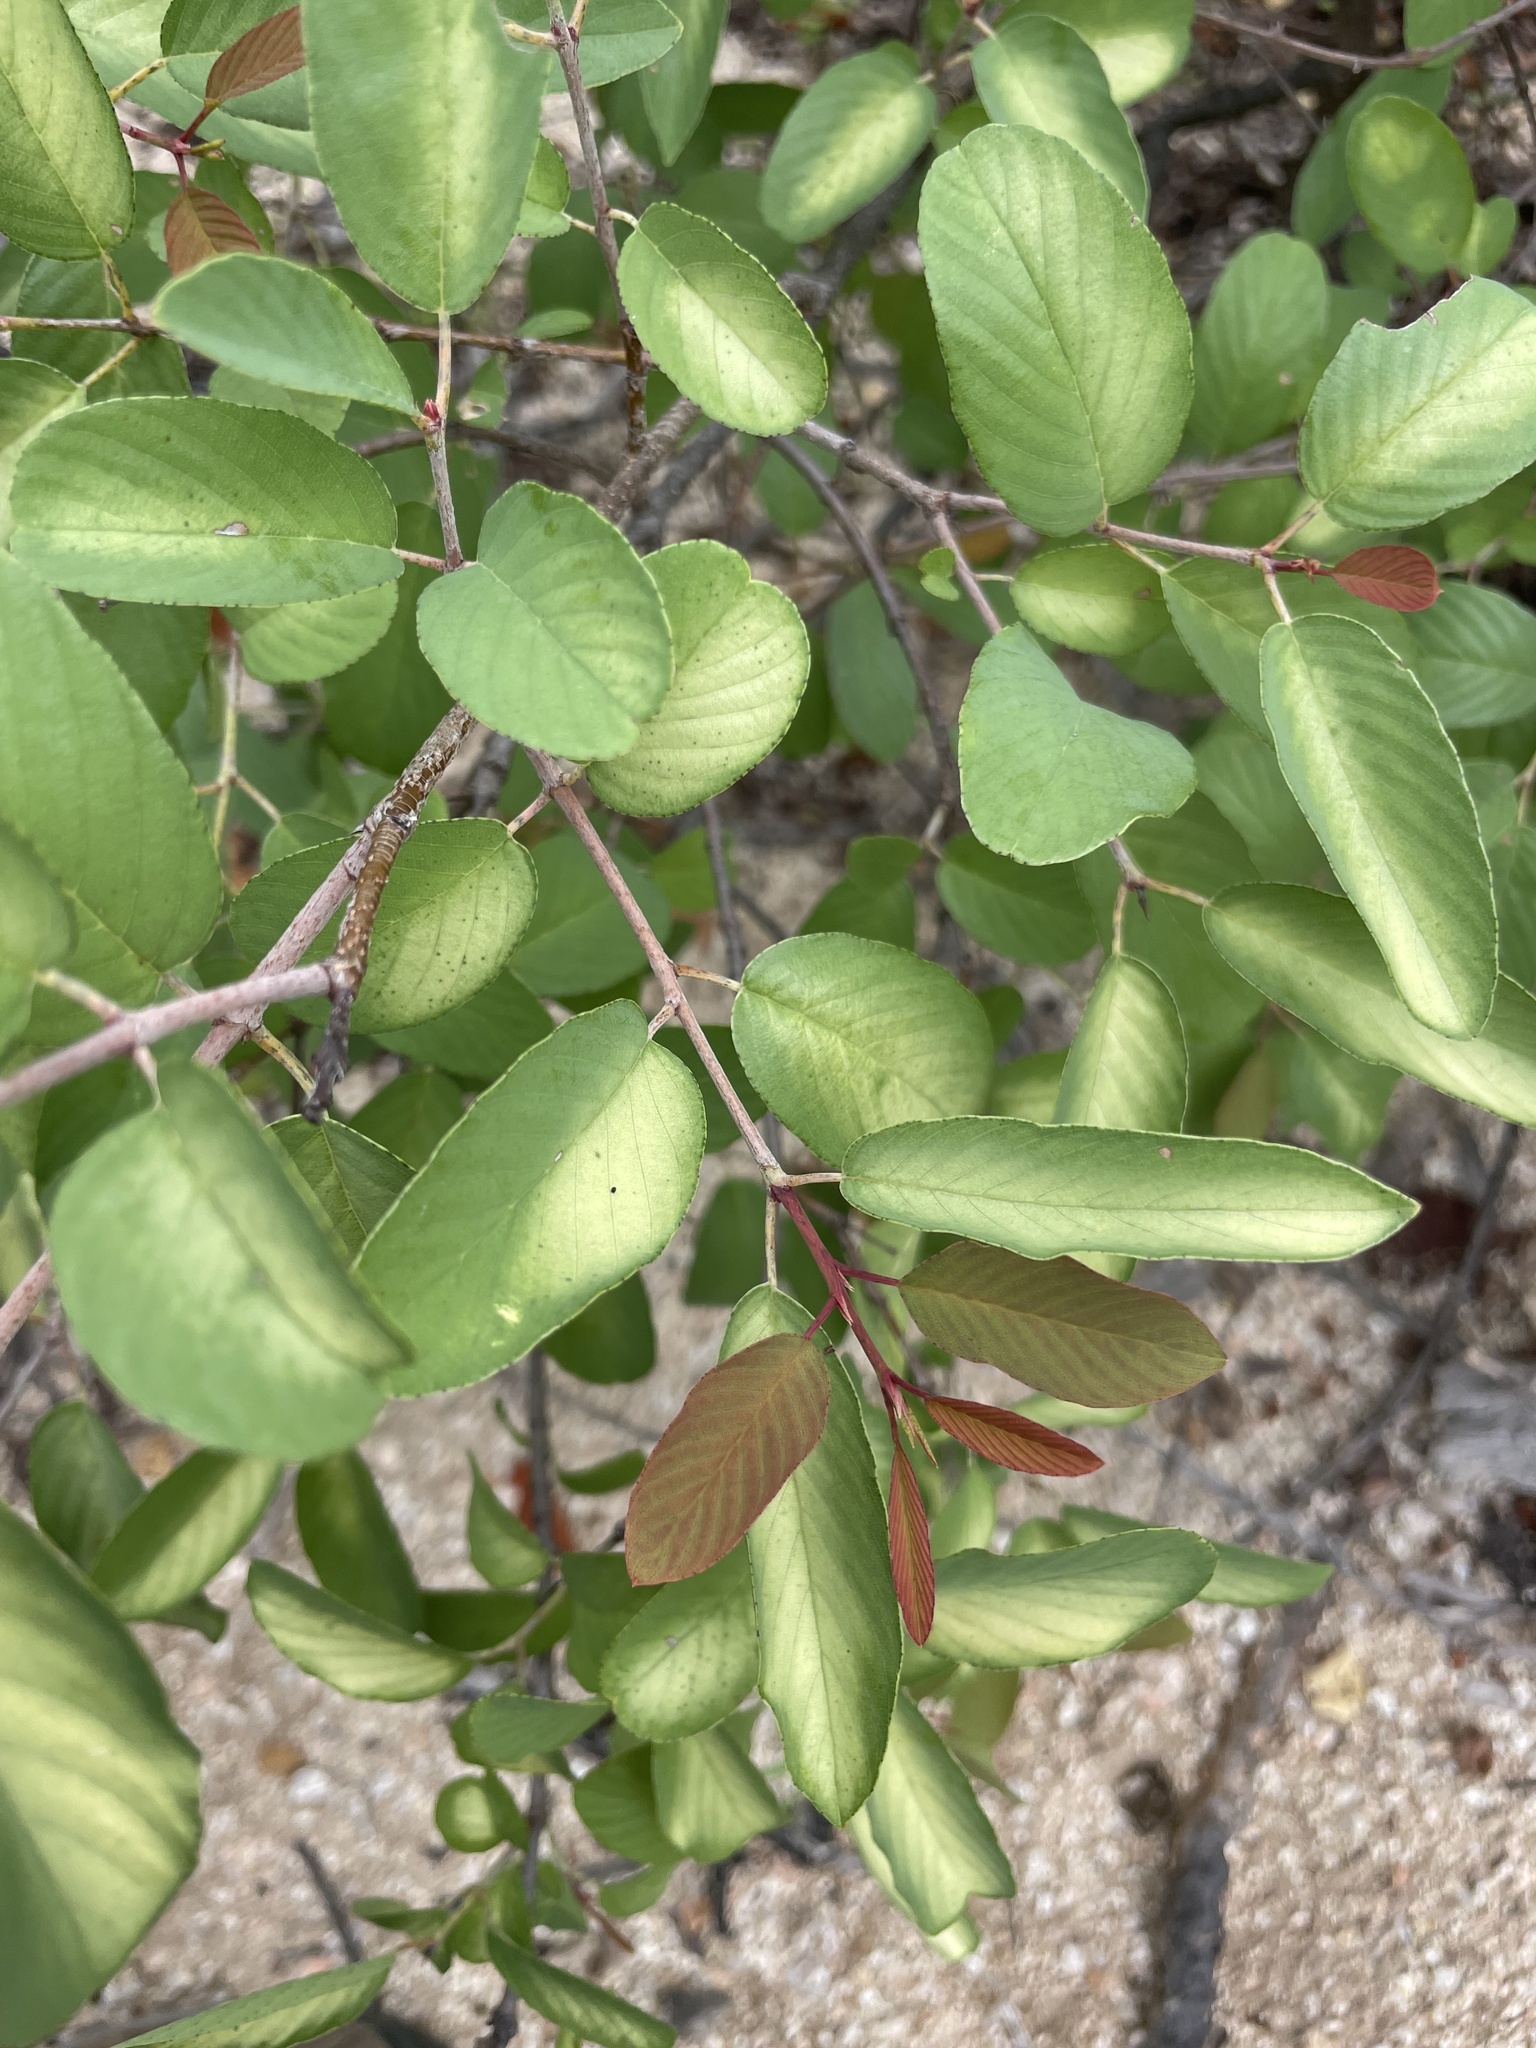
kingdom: Plantae
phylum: Tracheophyta
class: Magnoliopsida
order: Rosales
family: Rhamnaceae
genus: Karwinskia
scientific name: Karwinskia humboldtiana
